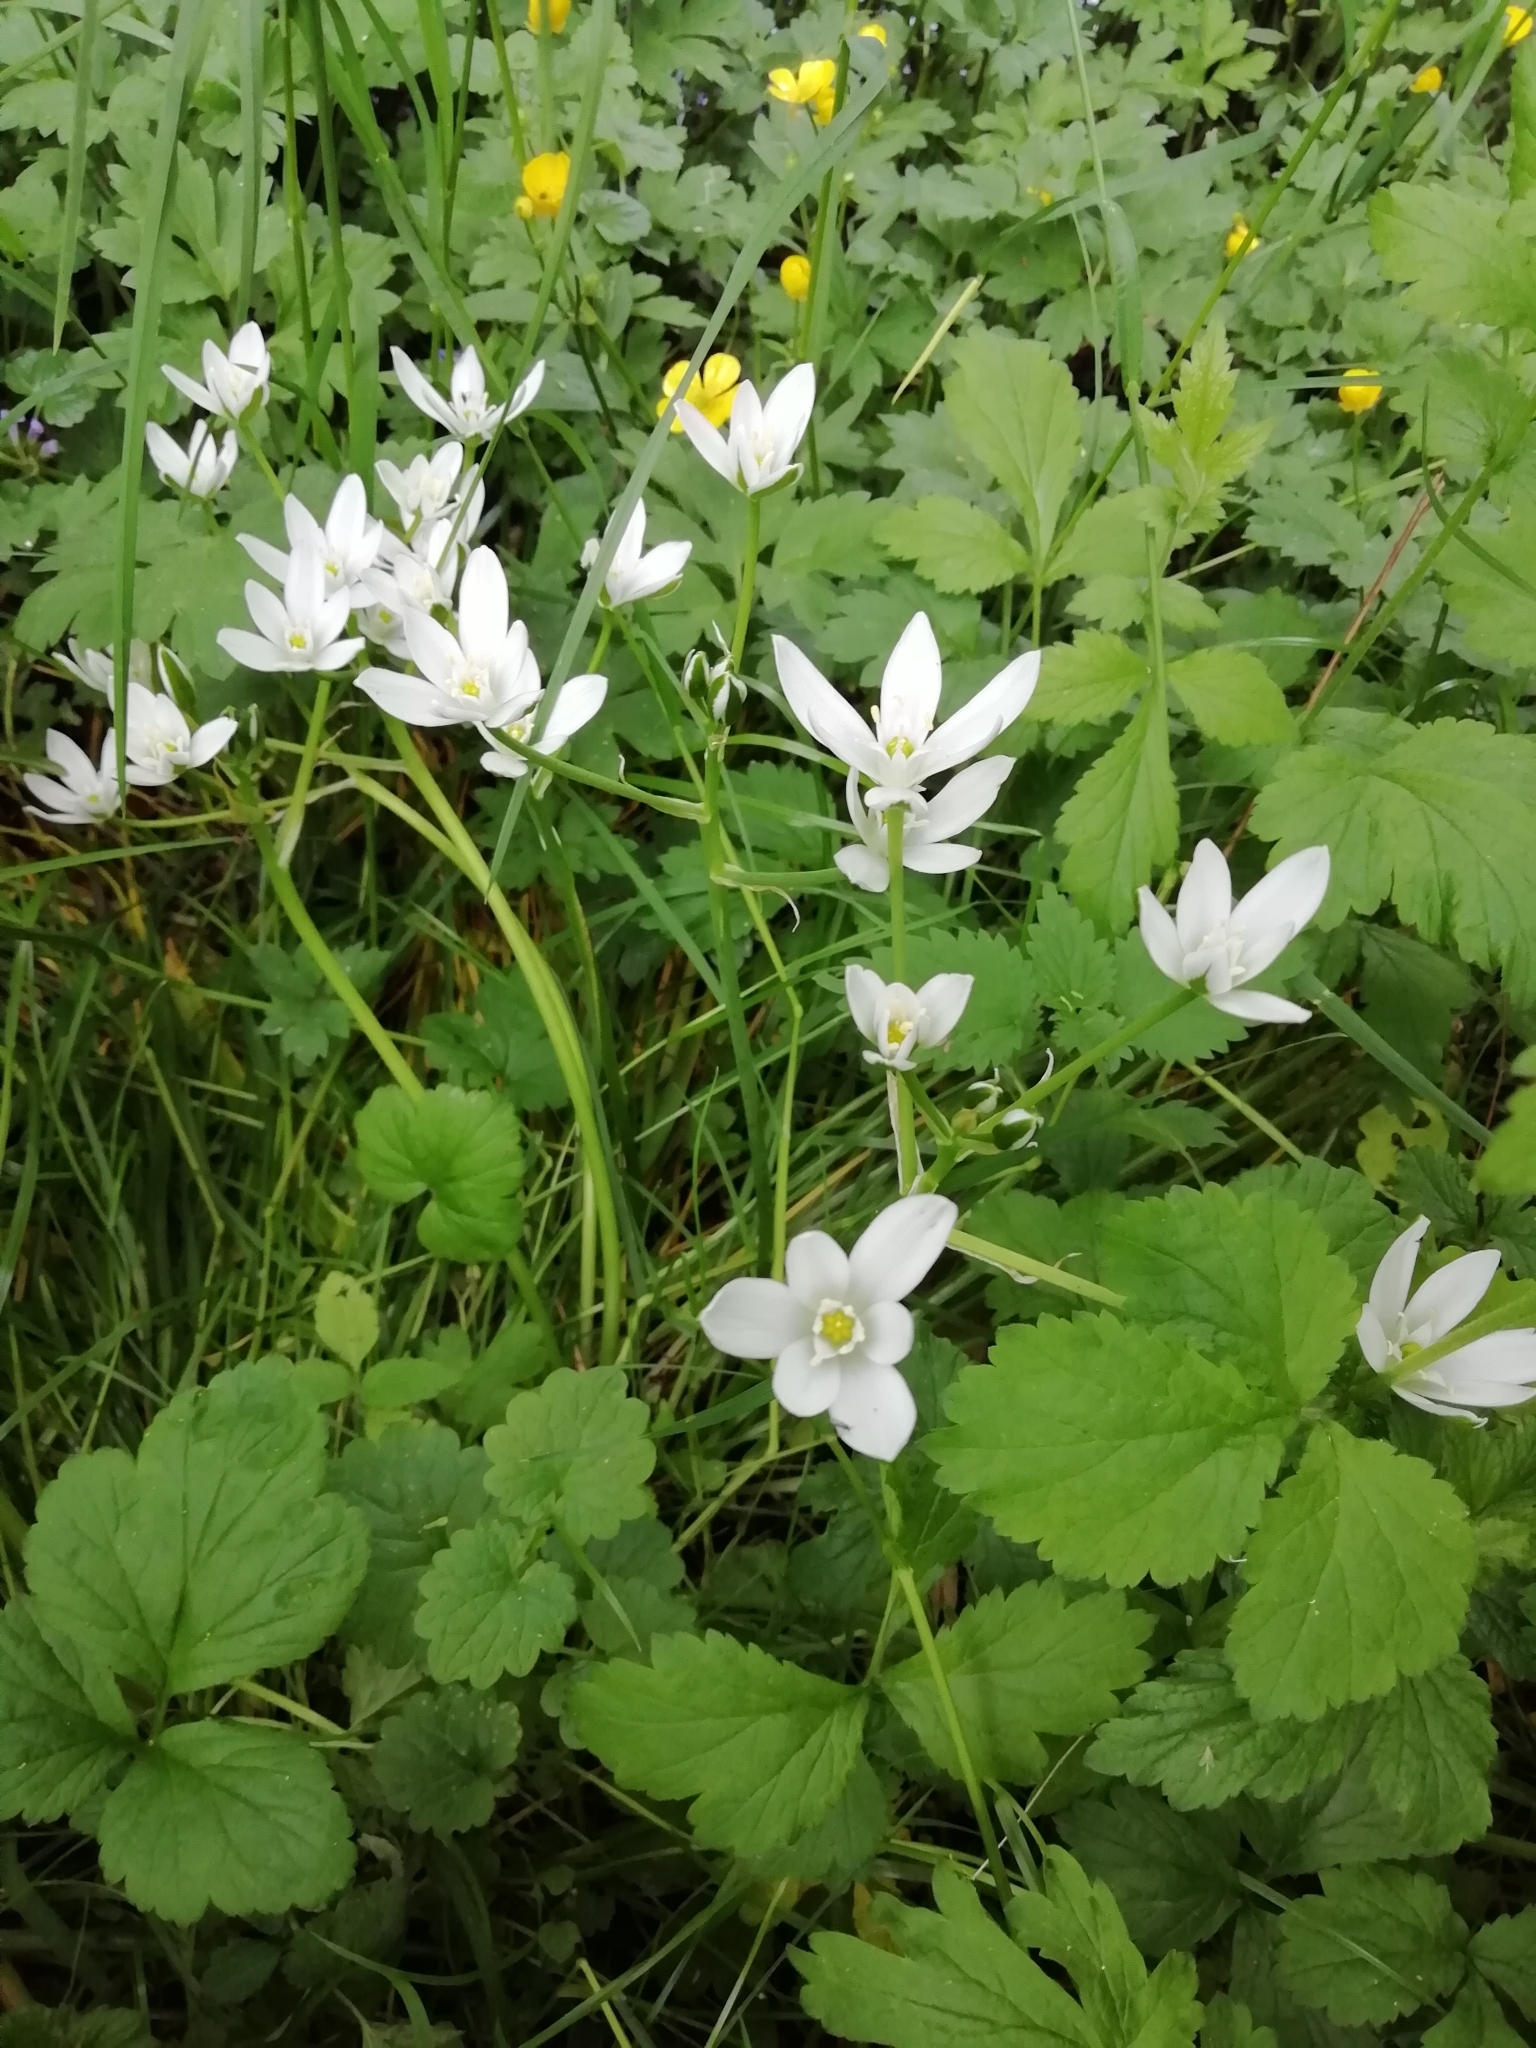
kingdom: Plantae
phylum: Tracheophyta
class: Liliopsida
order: Asparagales
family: Asparagaceae
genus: Ornithogalum
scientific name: Ornithogalum
